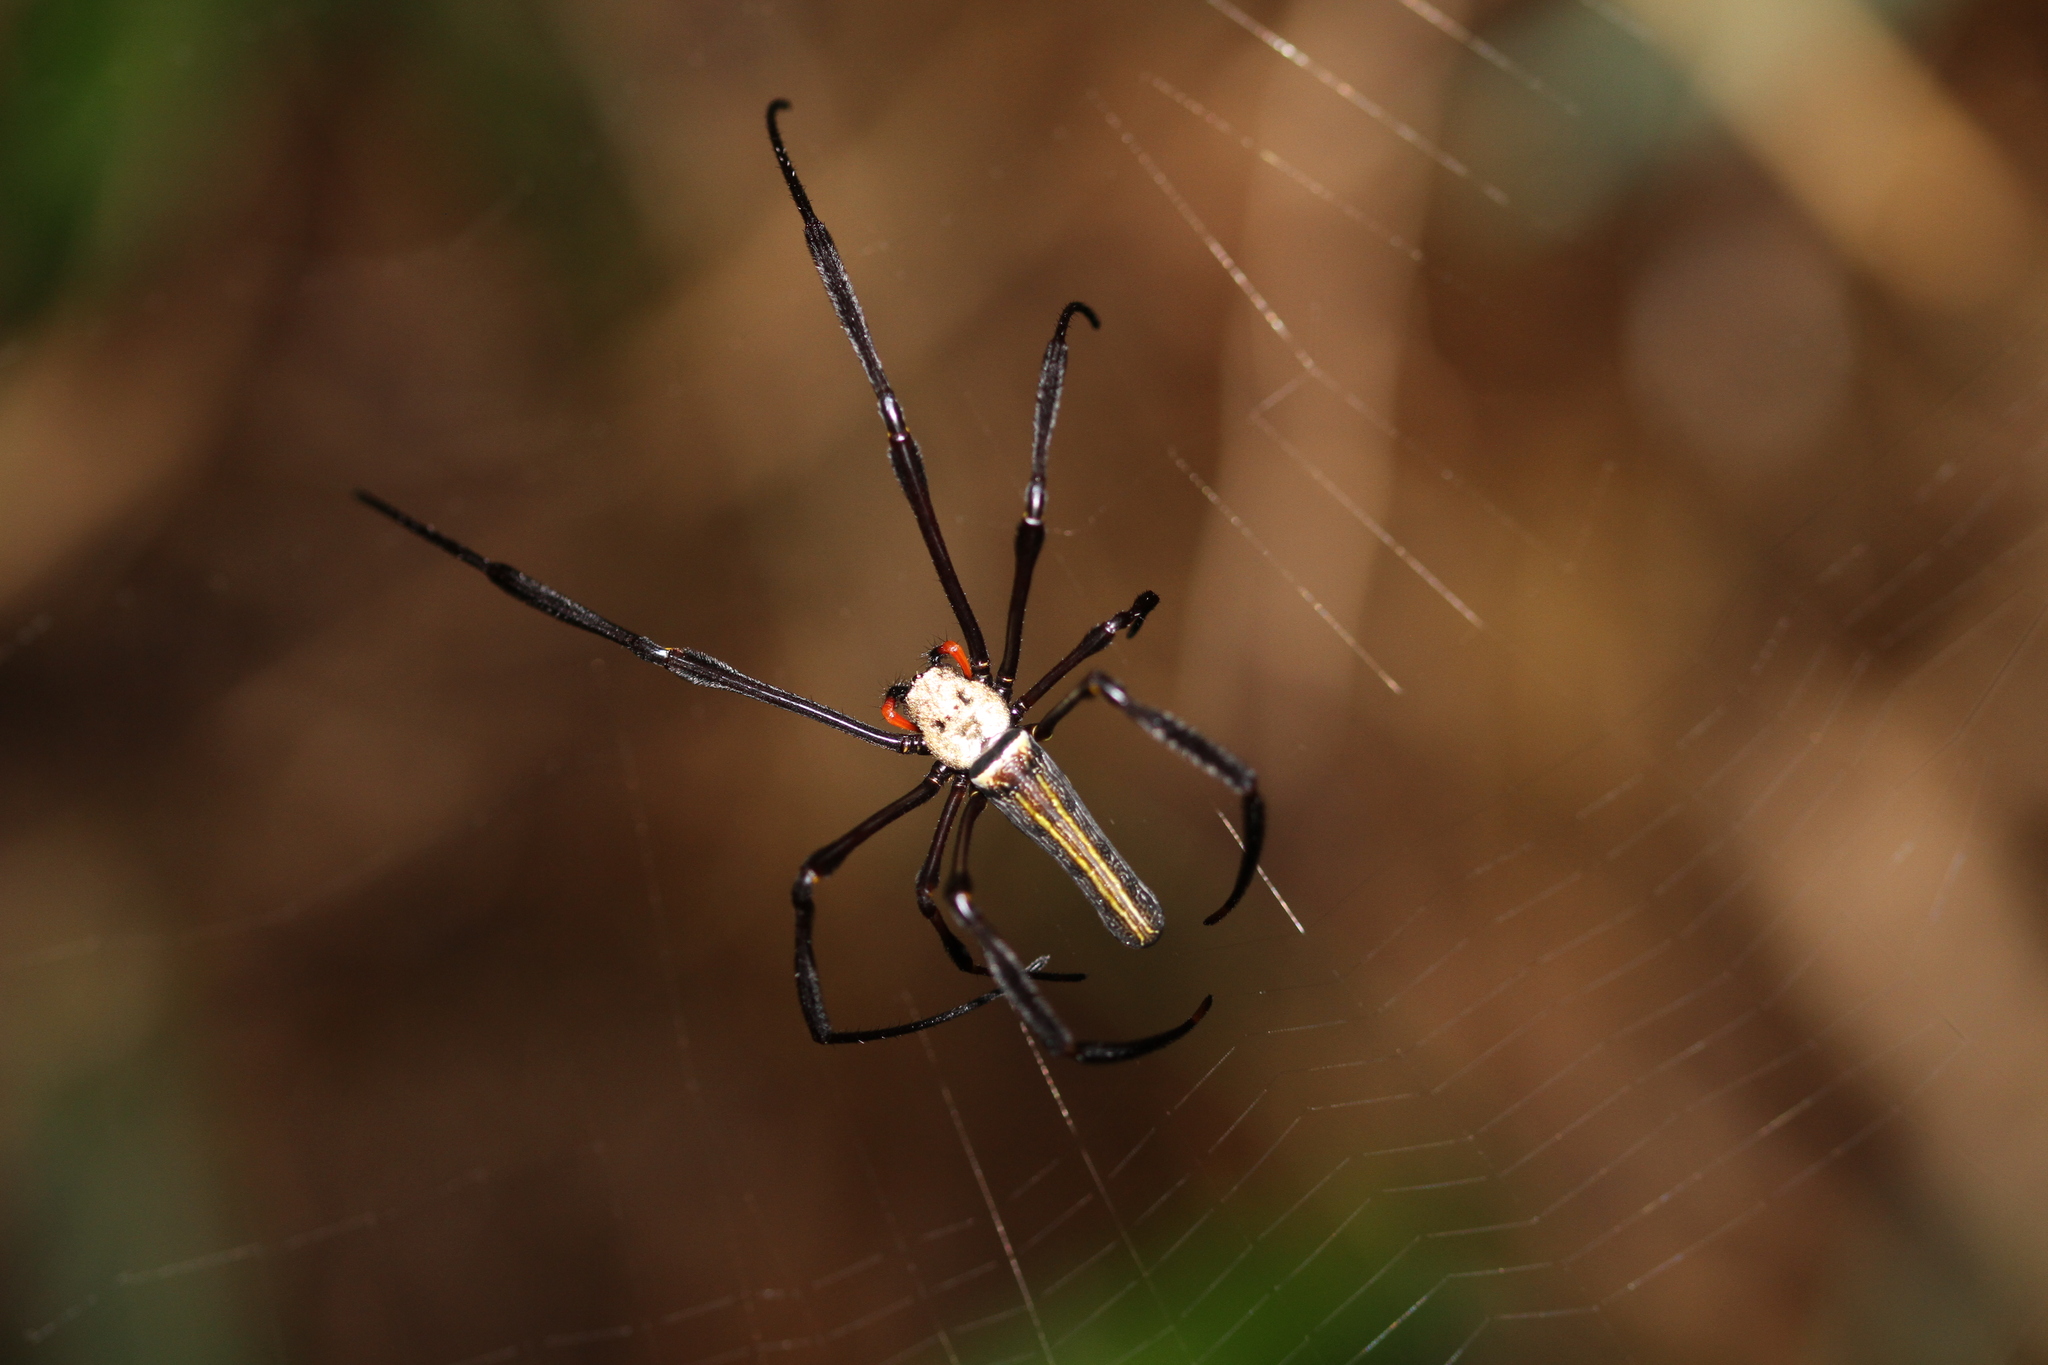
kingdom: Animalia
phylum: Arthropoda
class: Arachnida
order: Araneae
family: Araneidae
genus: Nephila
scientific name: Nephila pilipes
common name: Giant golden orb weaver
